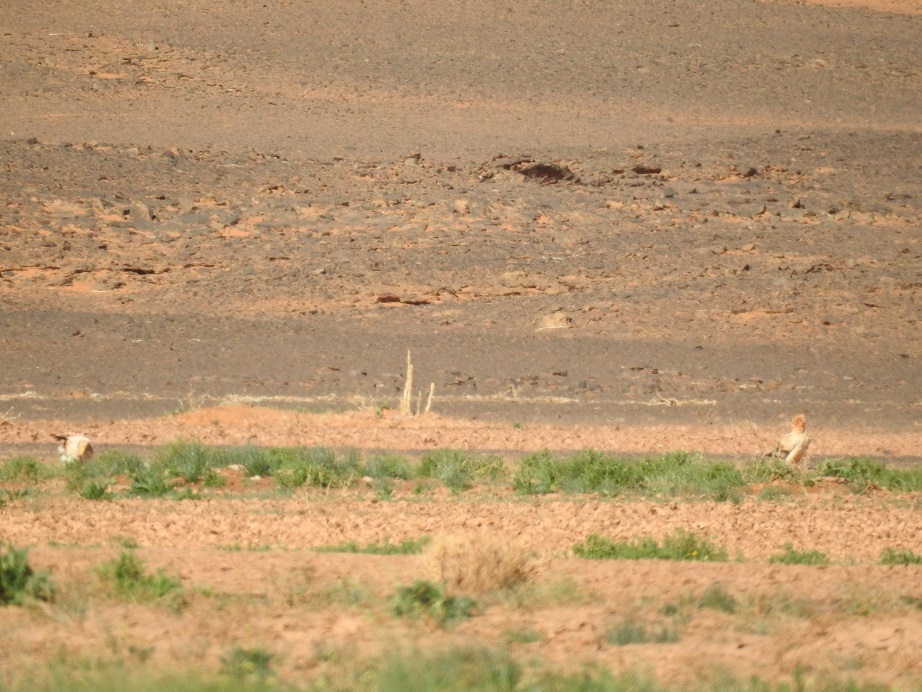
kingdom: Animalia
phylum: Chordata
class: Aves
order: Accipitriformes
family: Accipitridae
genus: Neophron
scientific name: Neophron percnopterus
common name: Egyptian vulture
